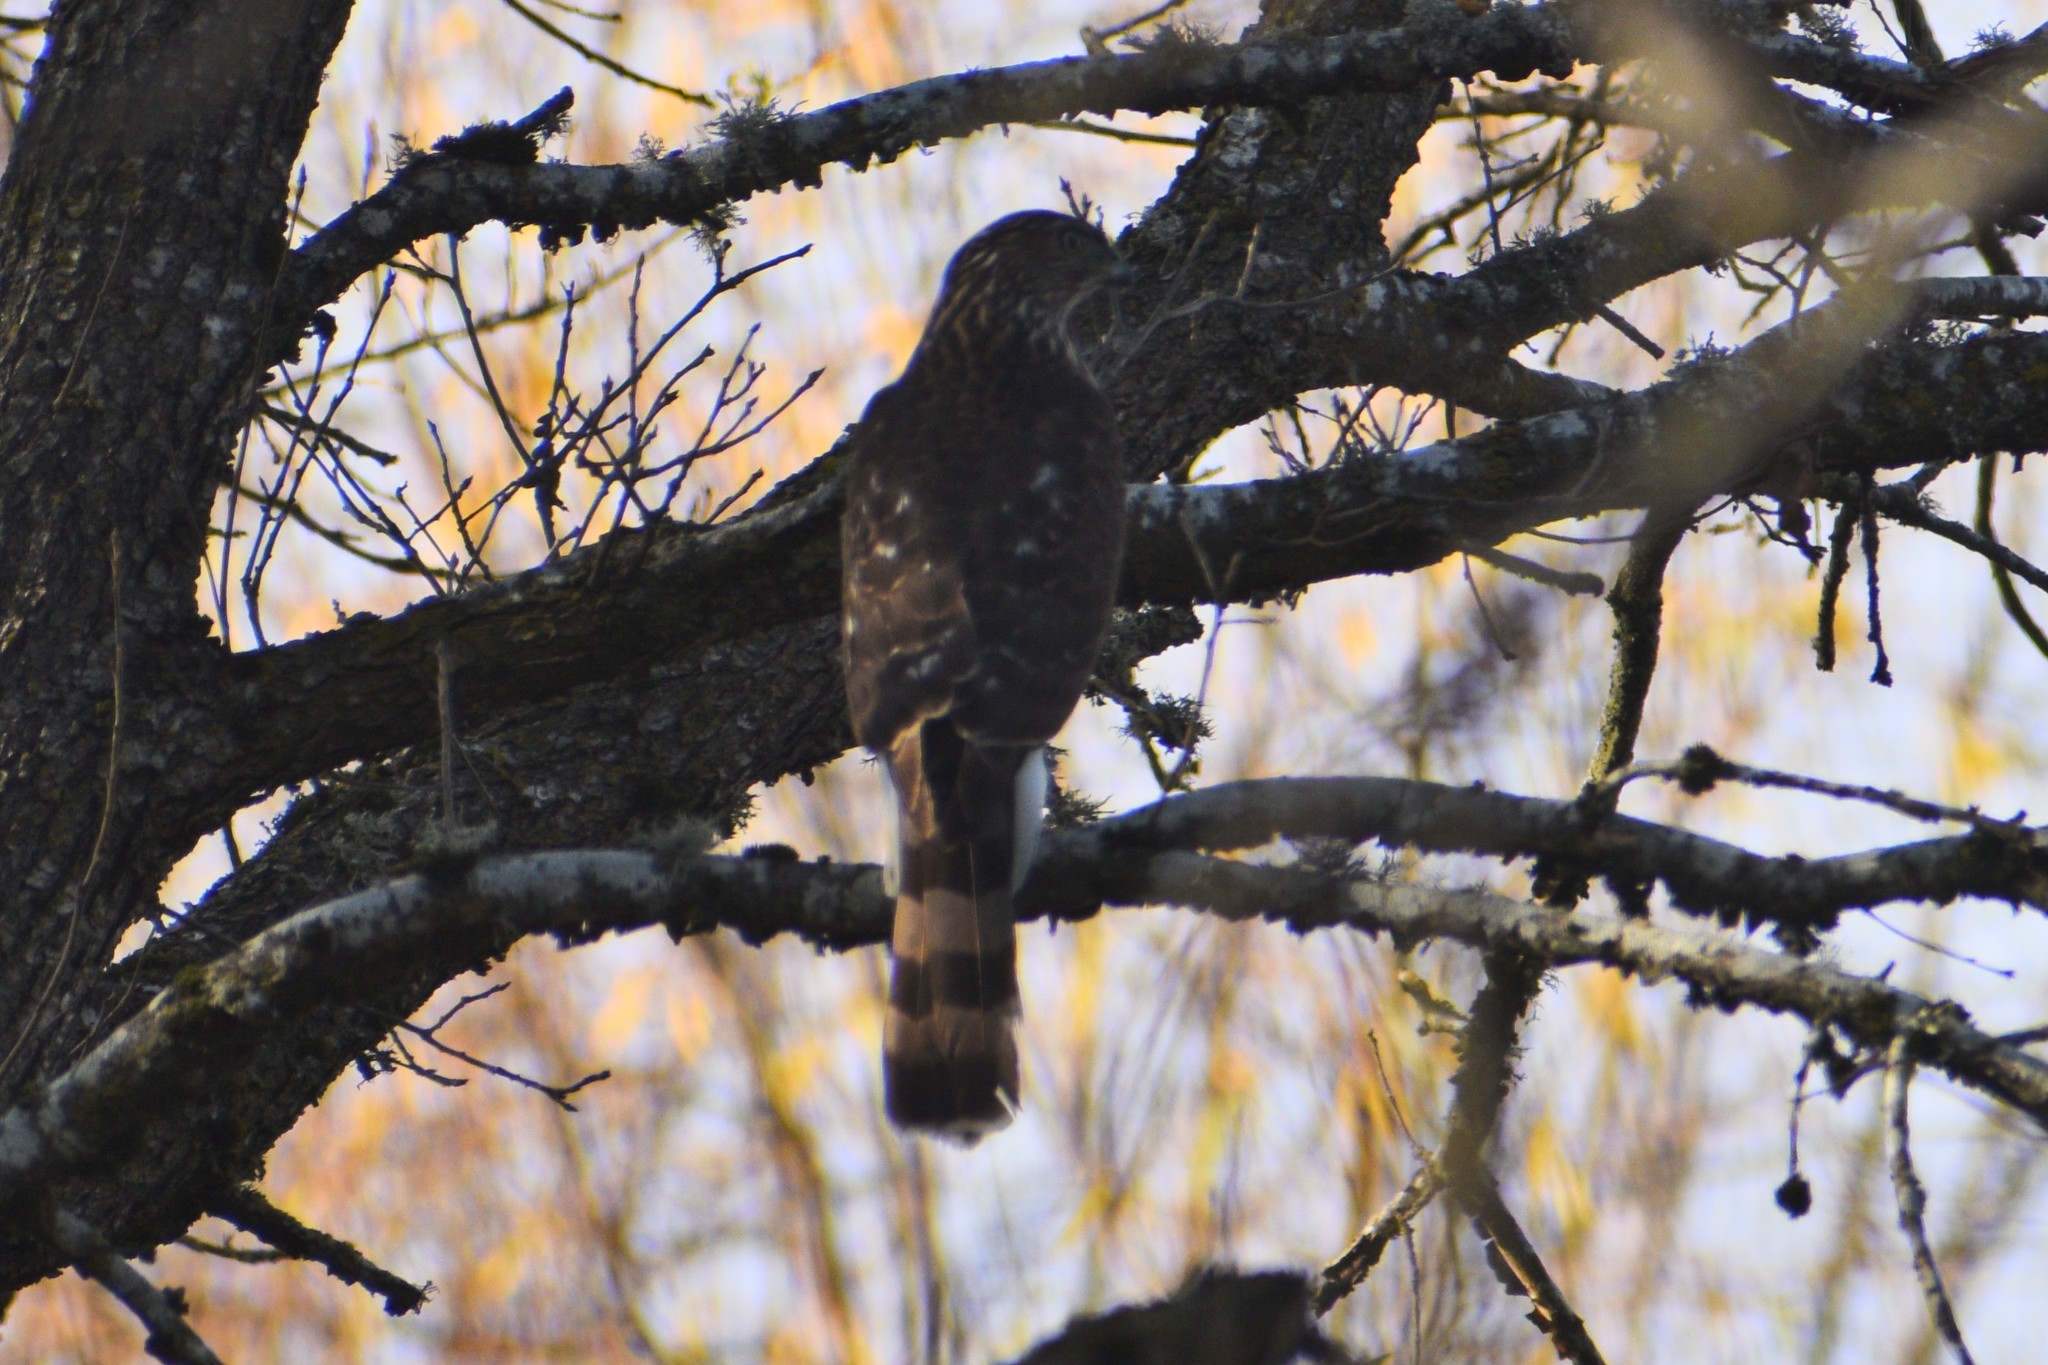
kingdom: Animalia
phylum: Chordata
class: Aves
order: Accipitriformes
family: Accipitridae
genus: Accipiter
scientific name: Accipiter cooperii
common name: Cooper's hawk
